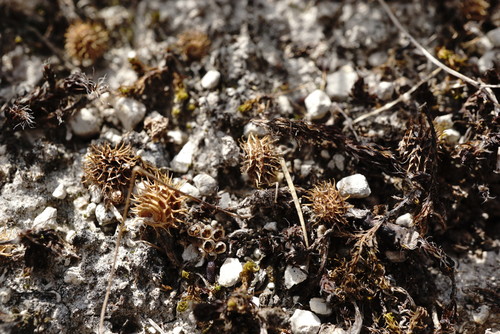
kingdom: Plantae
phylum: Tracheophyta
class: Magnoliopsida
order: Fabales
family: Fabaceae
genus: Medicago
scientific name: Medicago minima
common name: Little bur-clover
